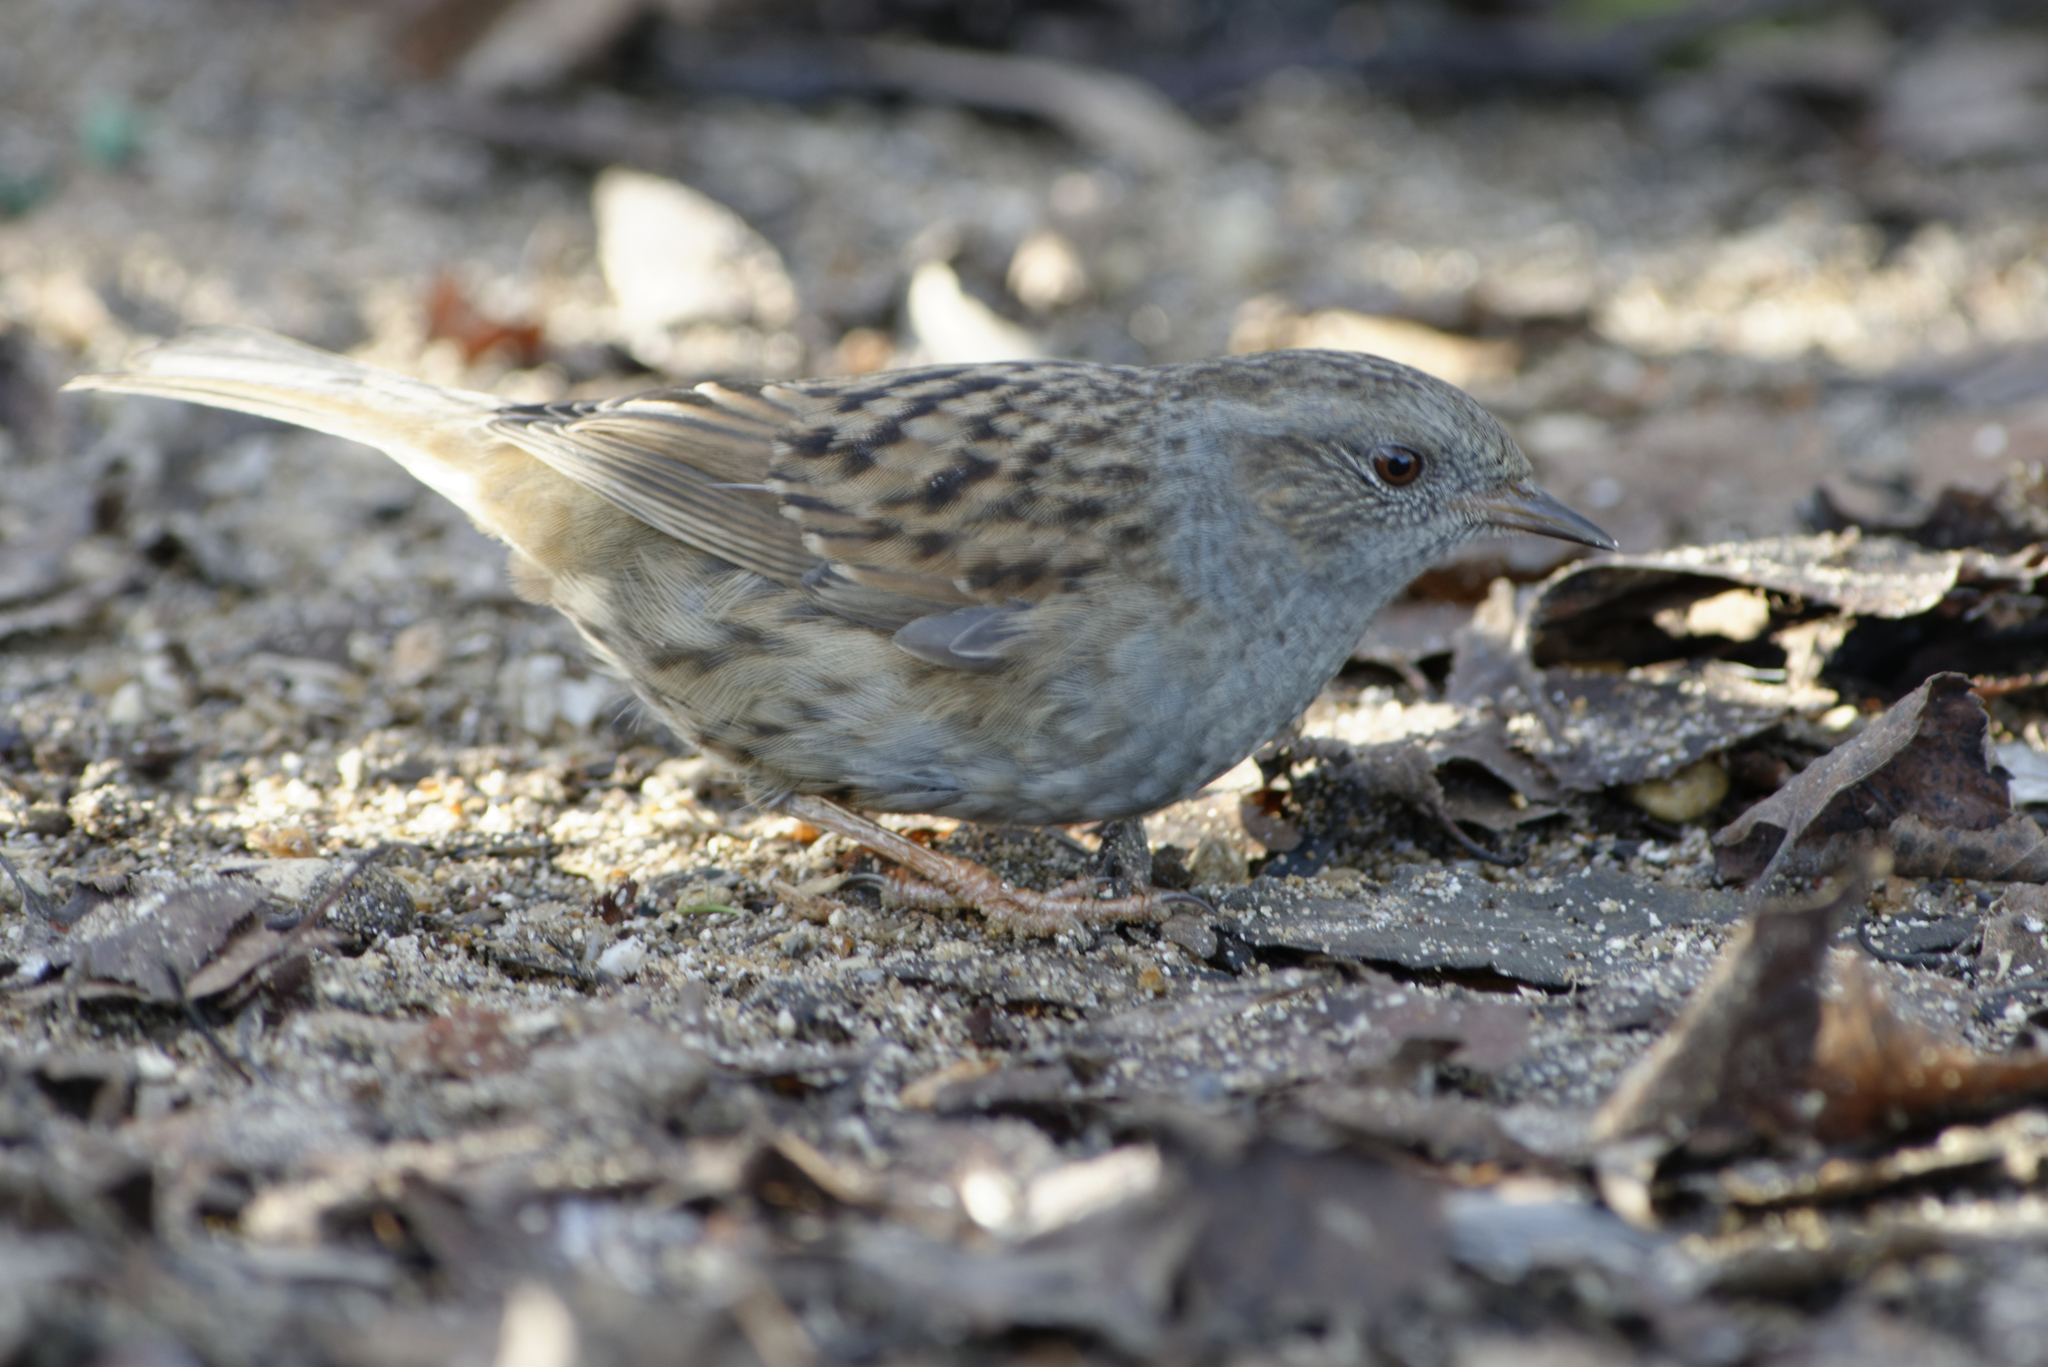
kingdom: Animalia
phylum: Chordata
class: Aves
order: Passeriformes
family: Prunellidae
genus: Prunella
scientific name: Prunella modularis
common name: Dunnock
